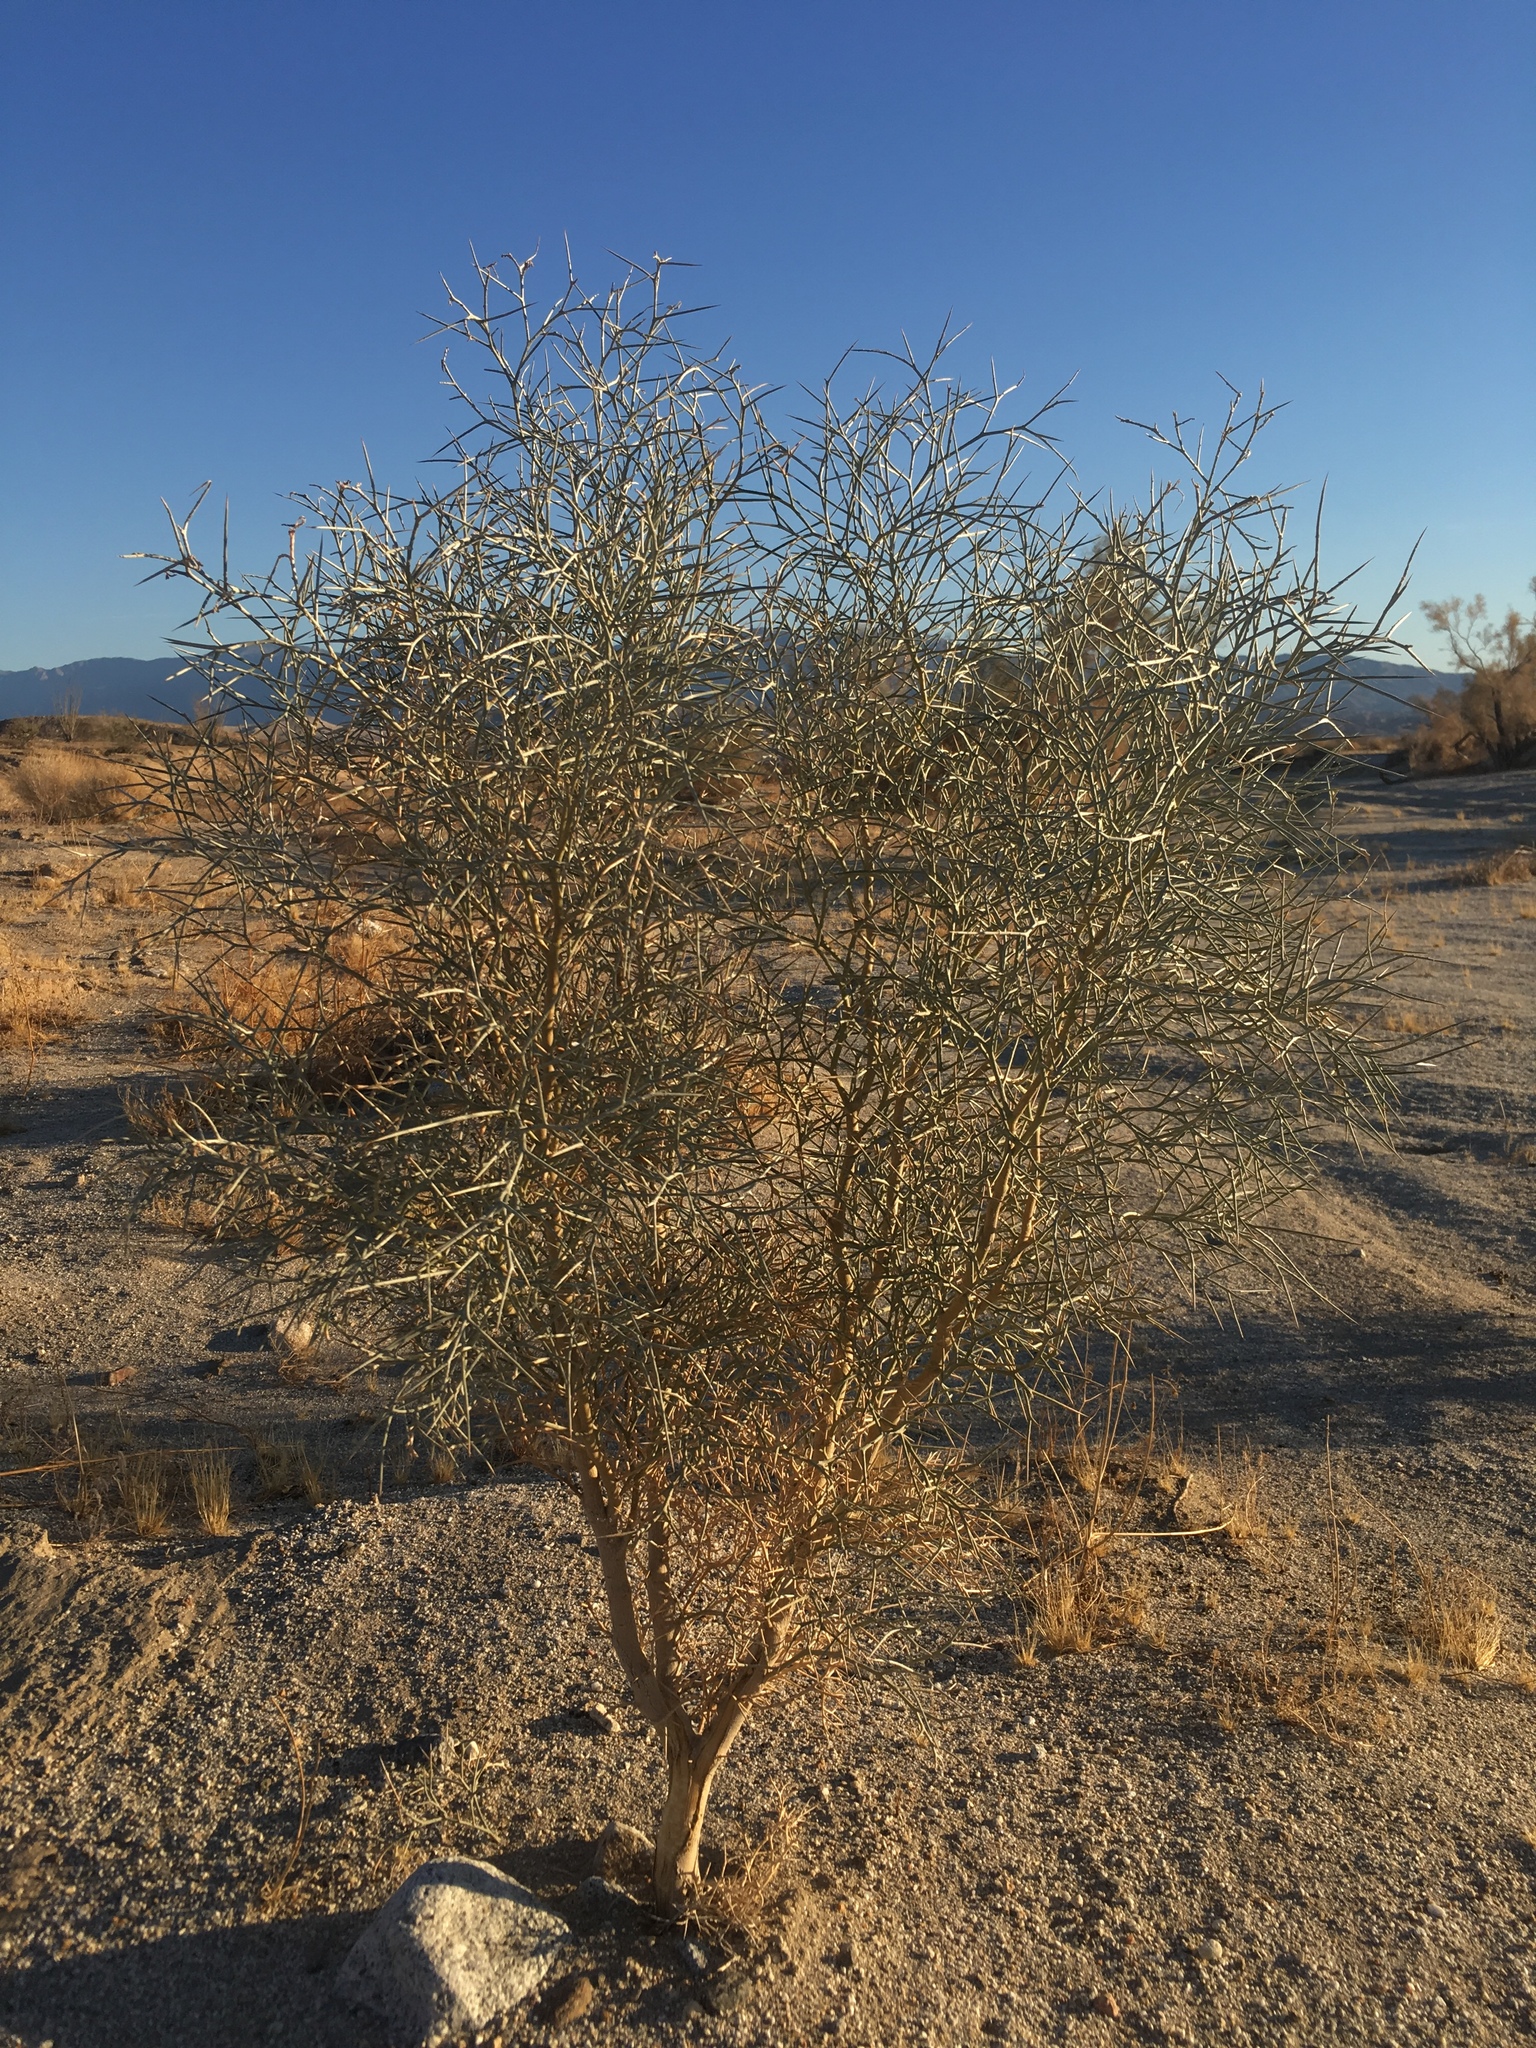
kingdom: Plantae
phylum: Tracheophyta
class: Magnoliopsida
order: Fabales
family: Fabaceae
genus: Psorothamnus
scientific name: Psorothamnus spinosus
